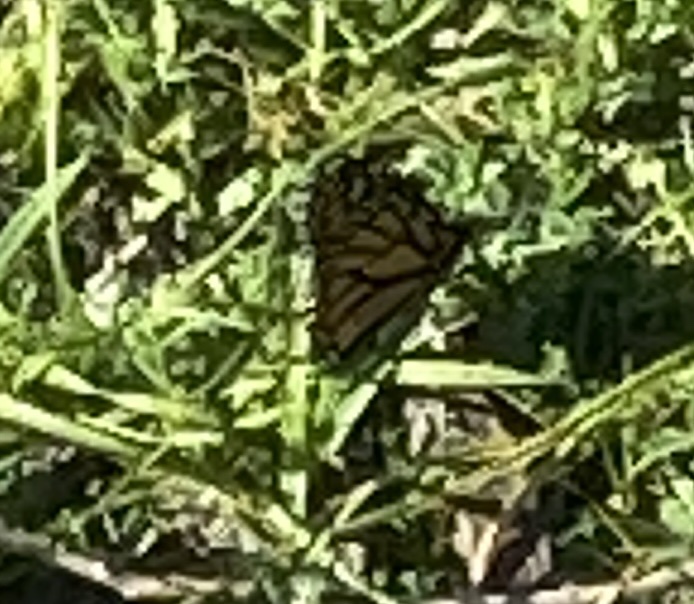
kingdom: Animalia
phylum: Arthropoda
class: Insecta
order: Lepidoptera
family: Nymphalidae
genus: Danaus
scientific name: Danaus plexippus
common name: Monarch
